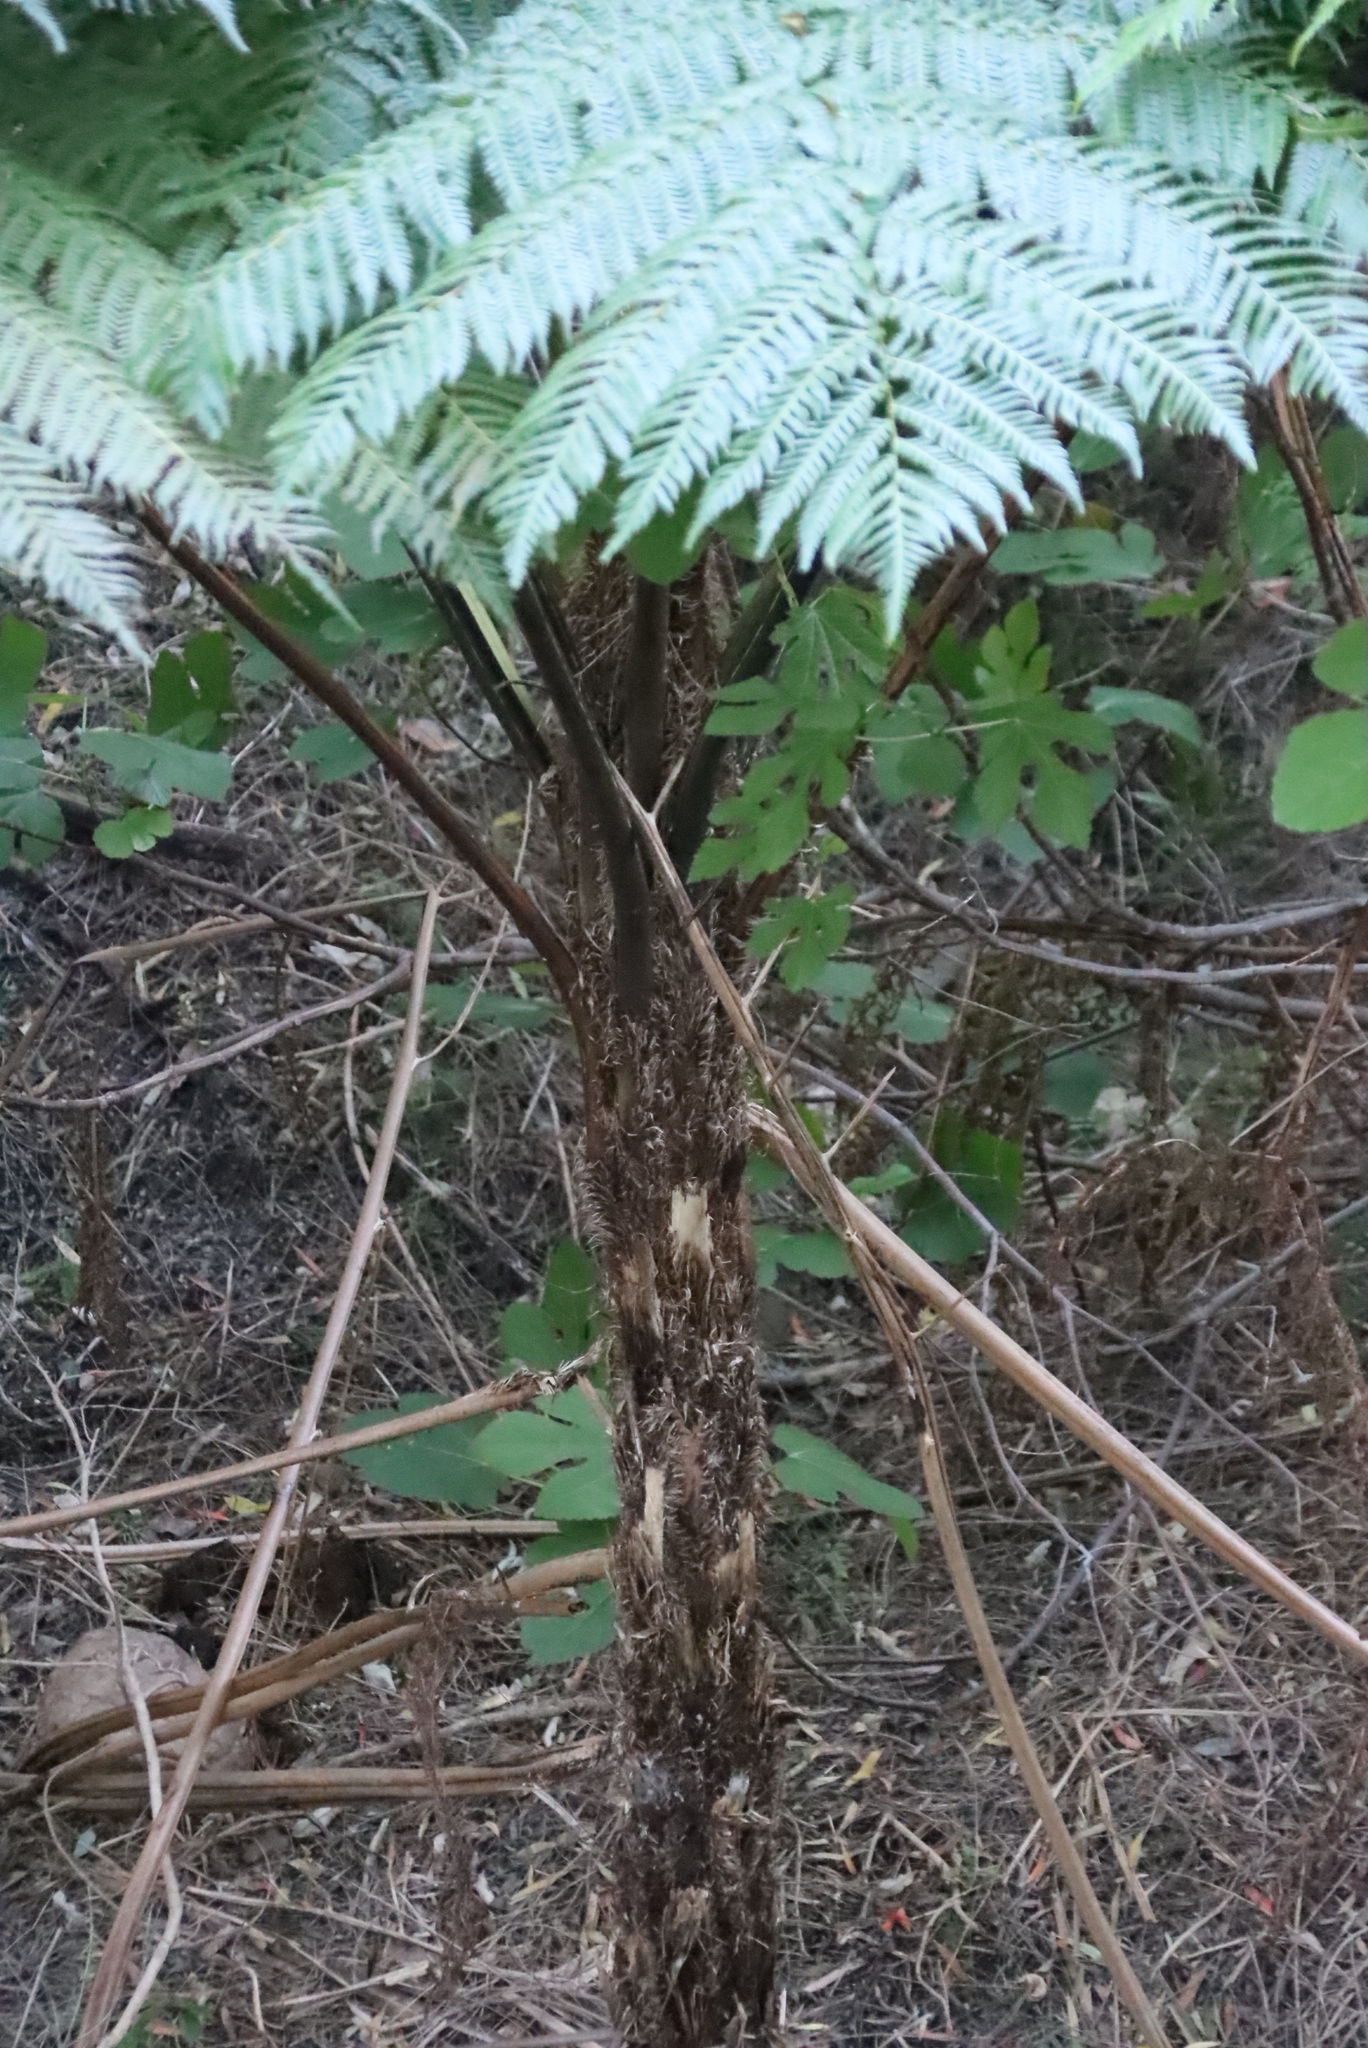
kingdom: Plantae
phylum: Tracheophyta
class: Polypodiopsida
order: Cyatheales
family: Cyatheaceae
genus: Sphaeropteris
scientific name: Sphaeropteris cooperi
